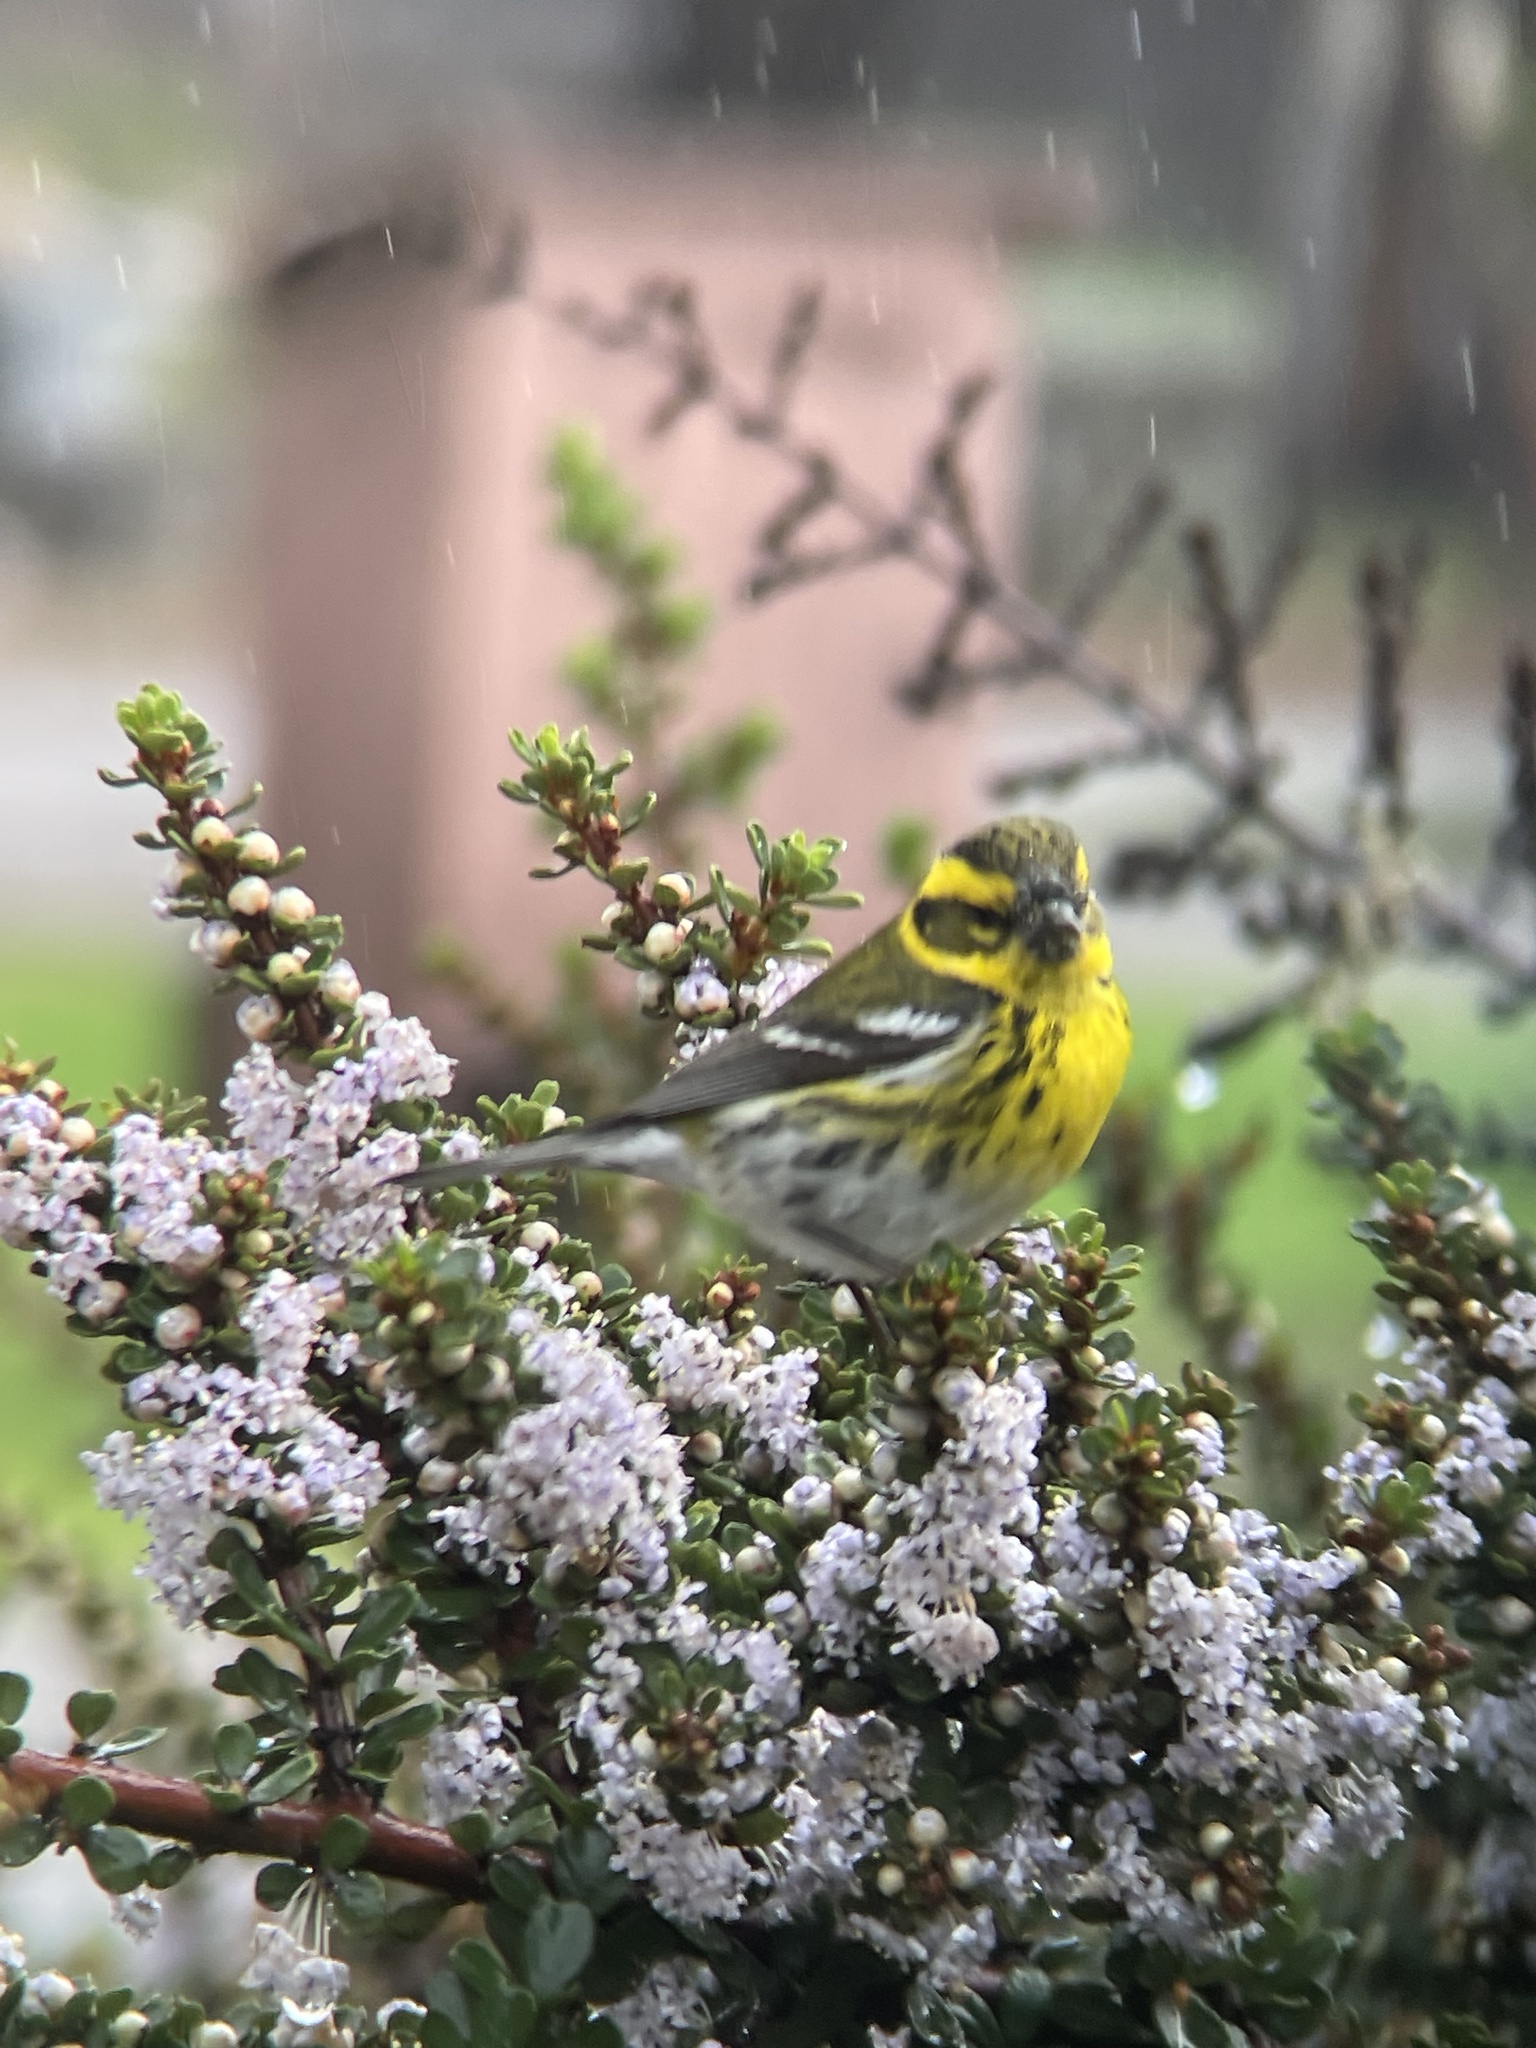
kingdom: Animalia
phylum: Chordata
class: Aves
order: Passeriformes
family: Parulidae
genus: Setophaga
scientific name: Setophaga townsendi
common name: Townsend's warbler
